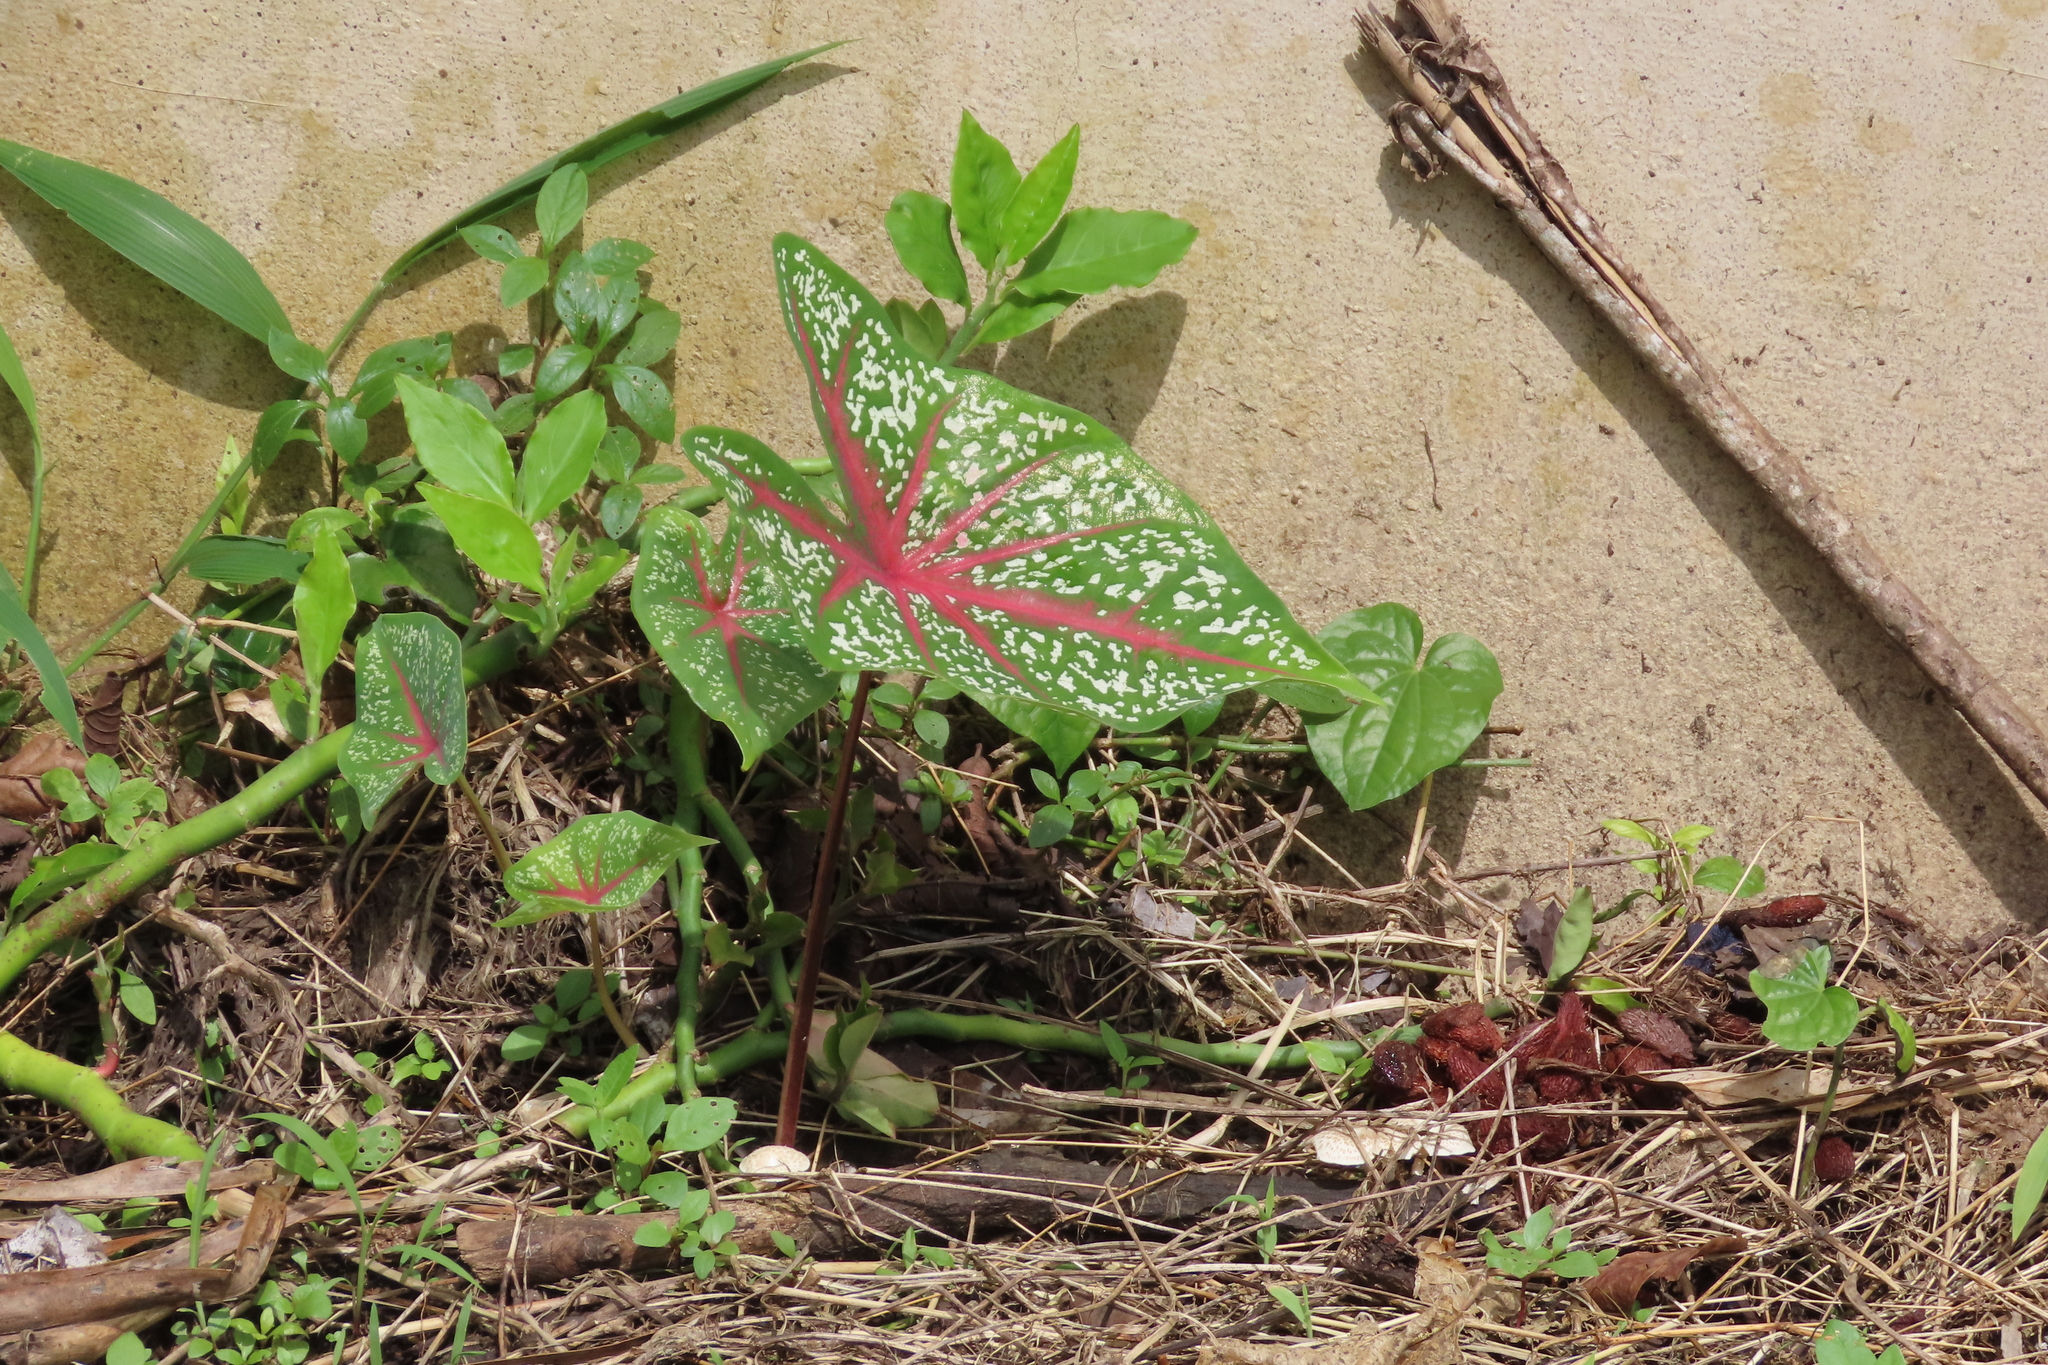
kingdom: Plantae
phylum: Tracheophyta
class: Liliopsida
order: Alismatales
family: Araceae
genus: Caladium
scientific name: Caladium bicolor
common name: Artist's pallet
